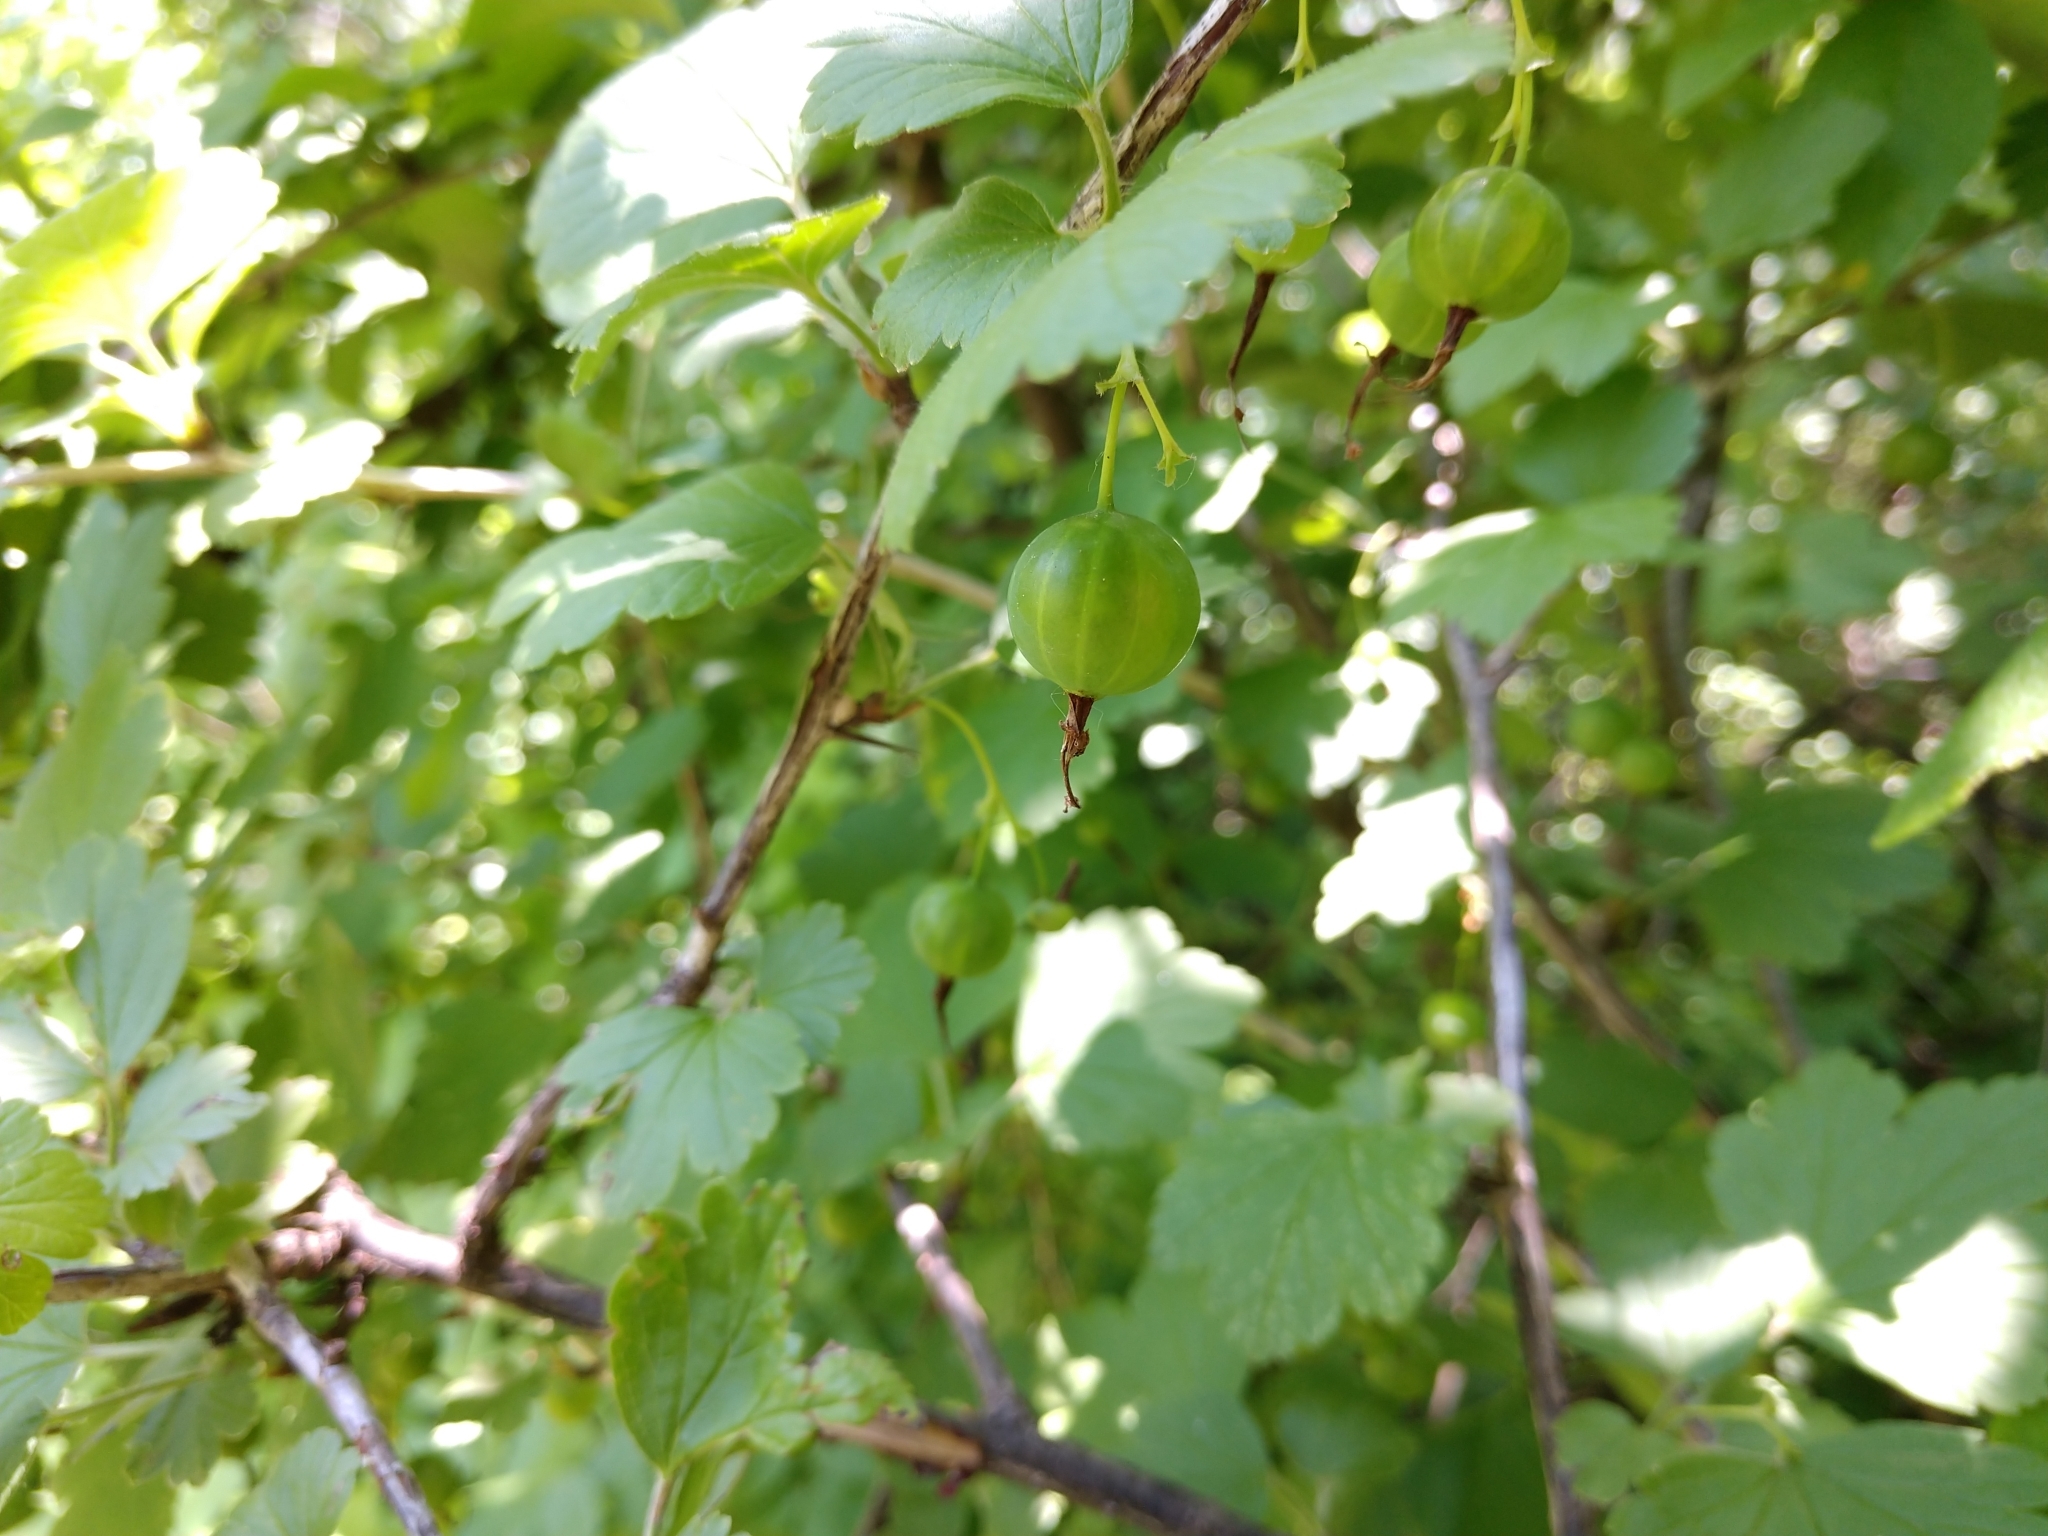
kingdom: Plantae
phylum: Tracheophyta
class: Magnoliopsida
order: Saxifragales
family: Grossulariaceae
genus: Ribes
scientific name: Ribes missouriense
